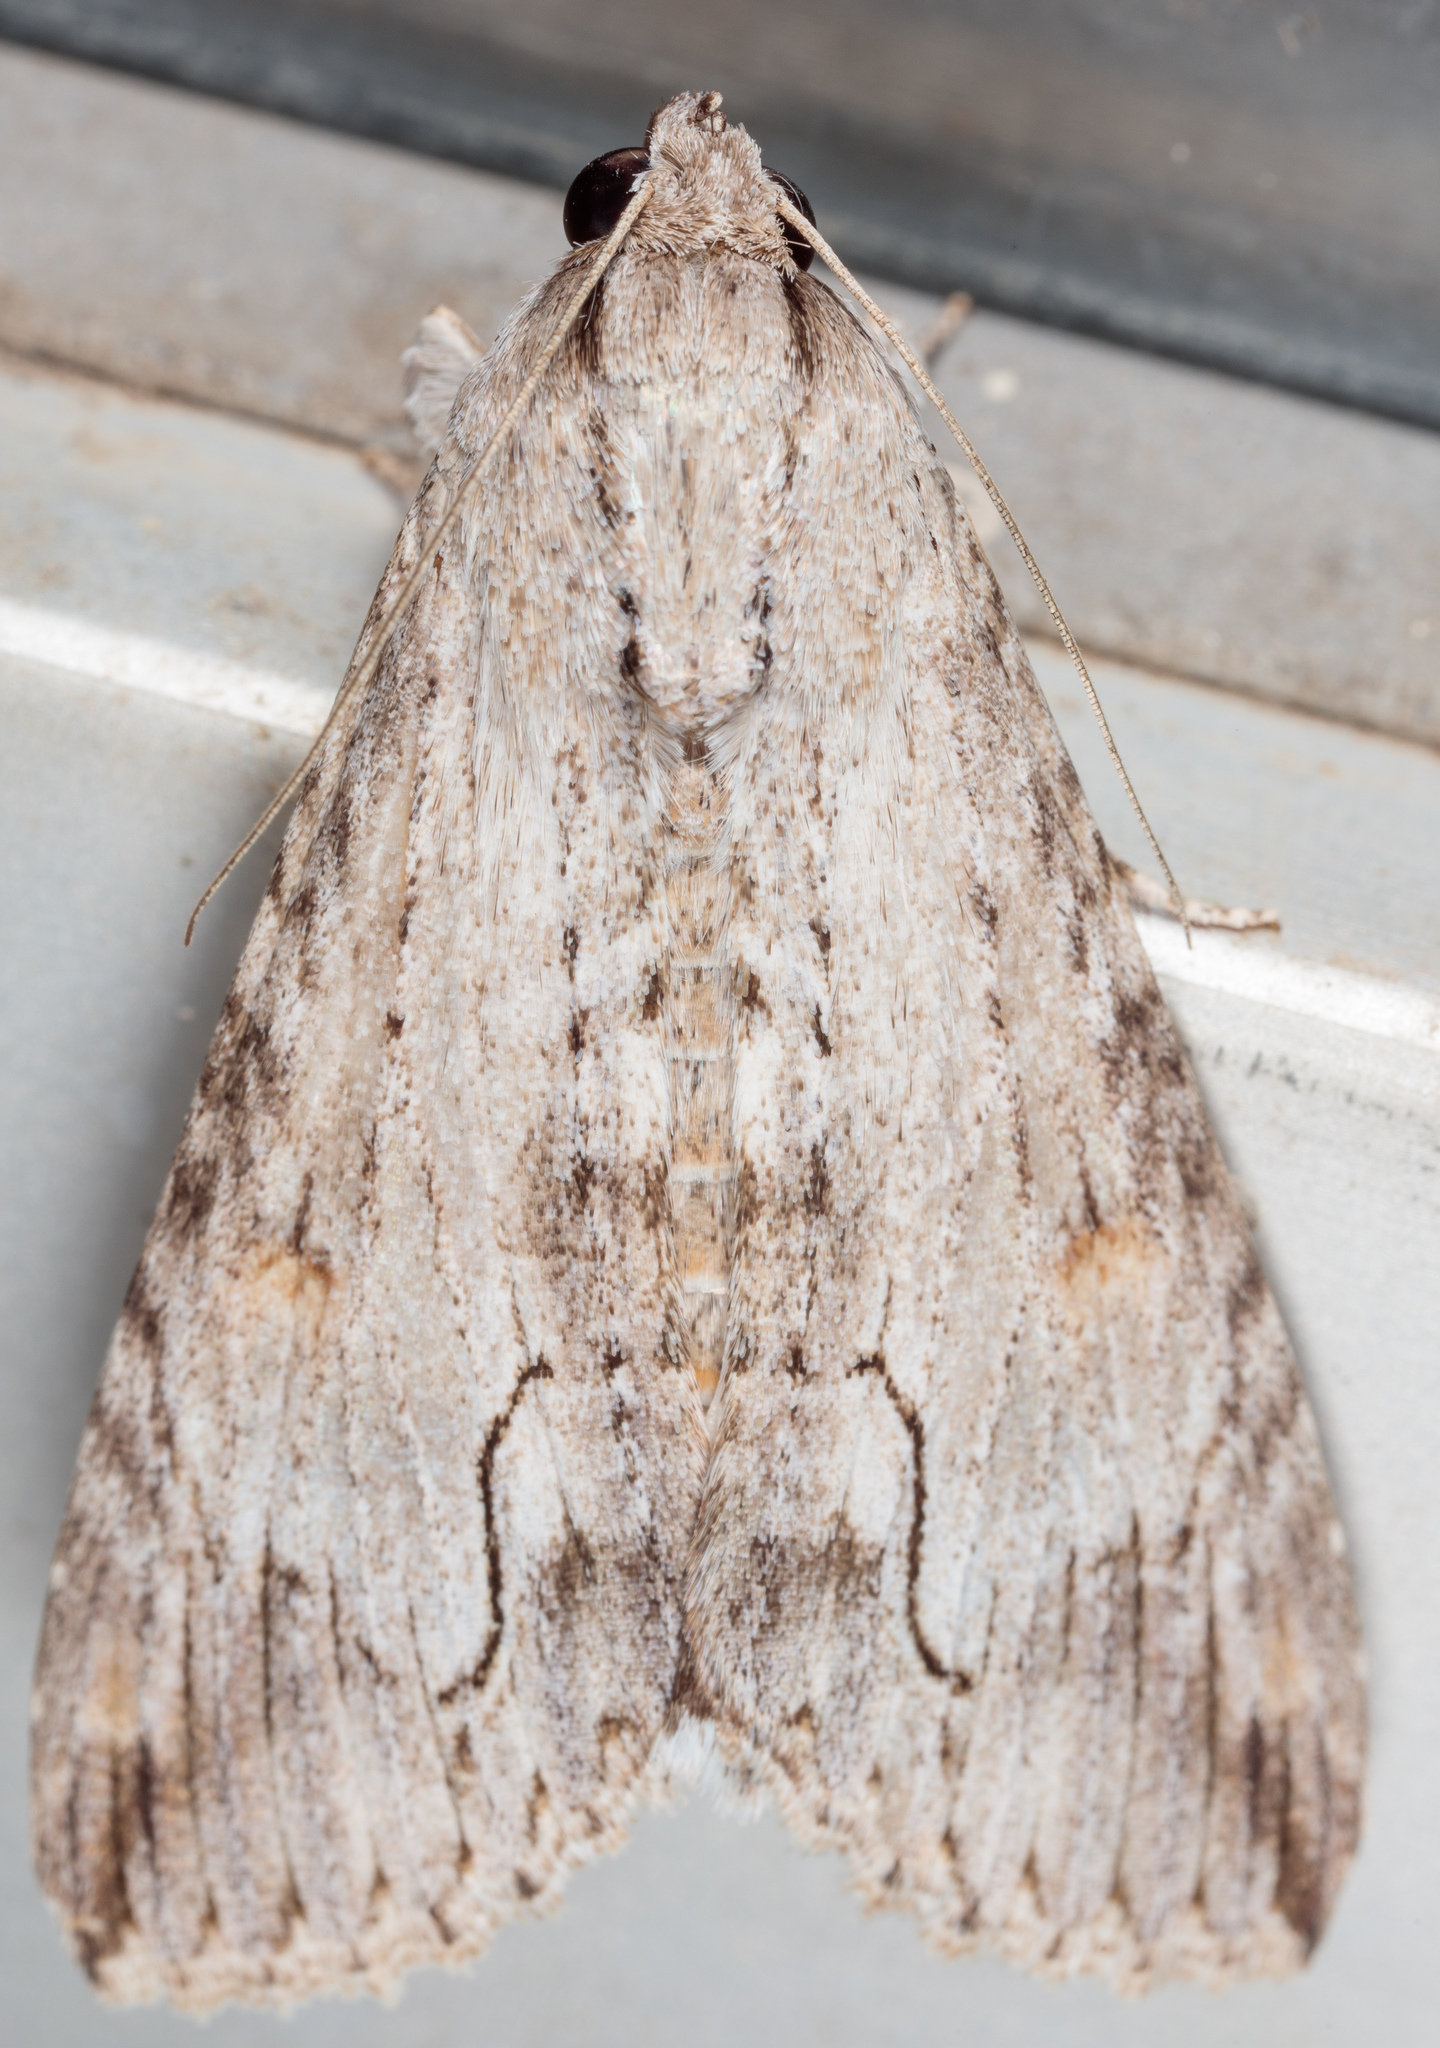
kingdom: Animalia
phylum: Arthropoda
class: Insecta
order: Lepidoptera
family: Erebidae
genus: Melipotis
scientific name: Melipotis acontioides
